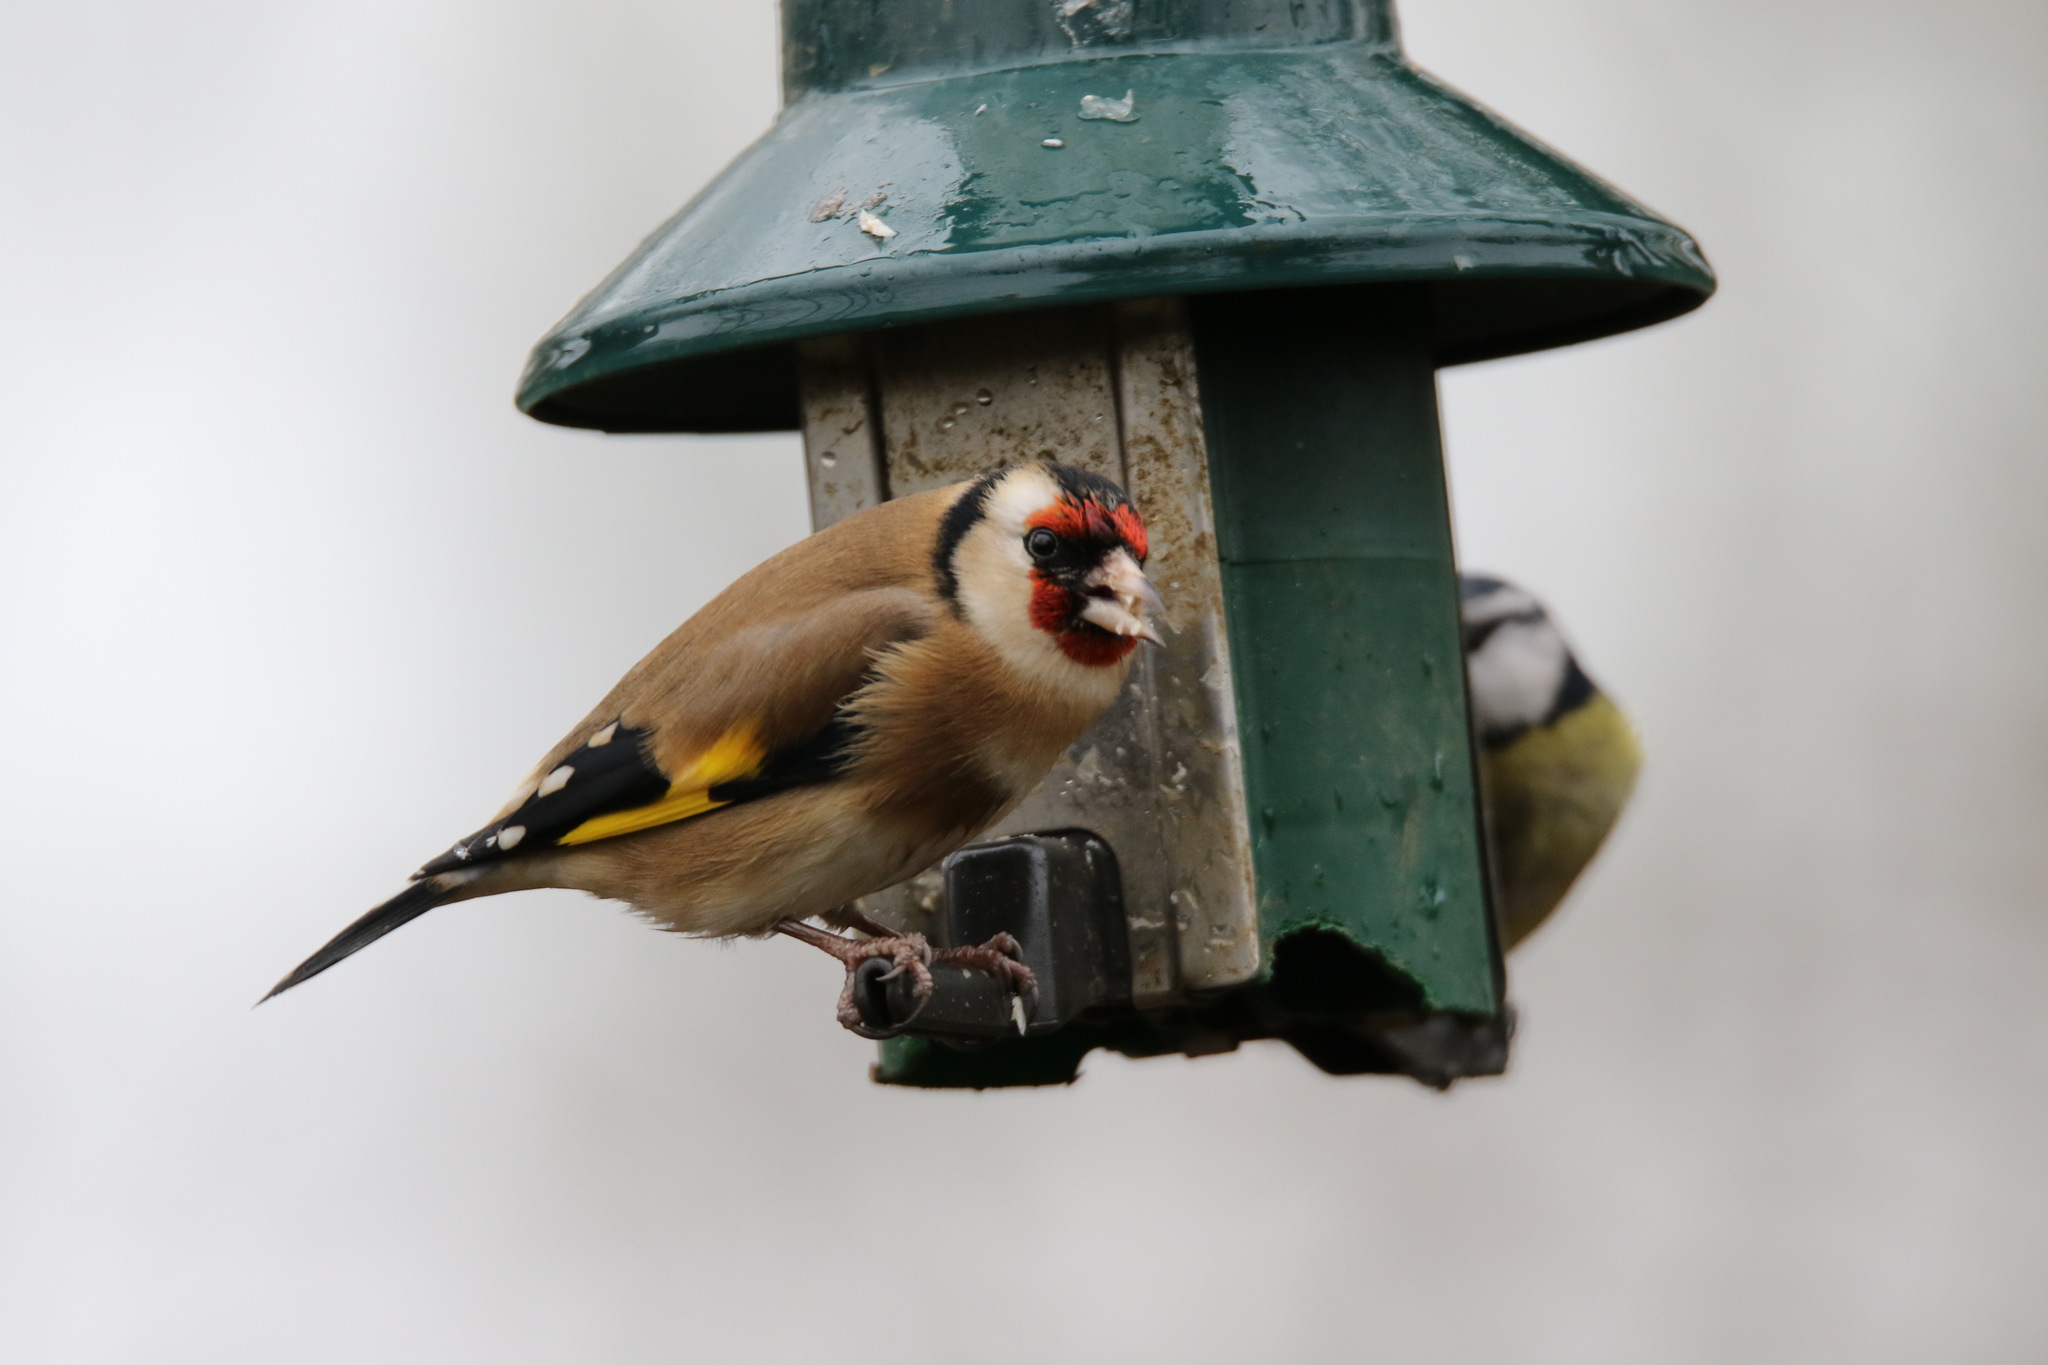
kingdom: Animalia
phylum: Chordata
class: Aves
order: Passeriformes
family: Fringillidae
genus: Carduelis
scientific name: Carduelis carduelis
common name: European goldfinch
